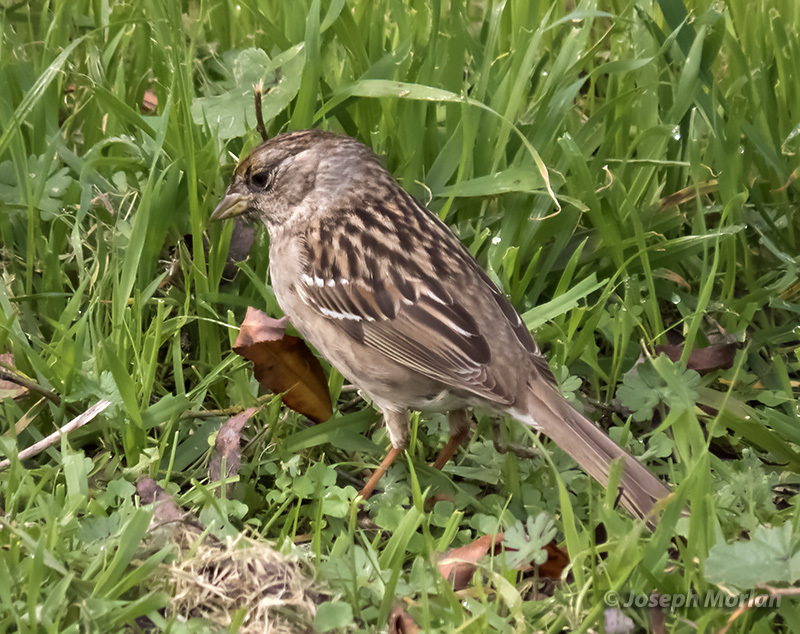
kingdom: Animalia
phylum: Chordata
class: Aves
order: Passeriformes
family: Passerellidae
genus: Zonotrichia
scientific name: Zonotrichia atricapilla
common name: Golden-crowned sparrow
